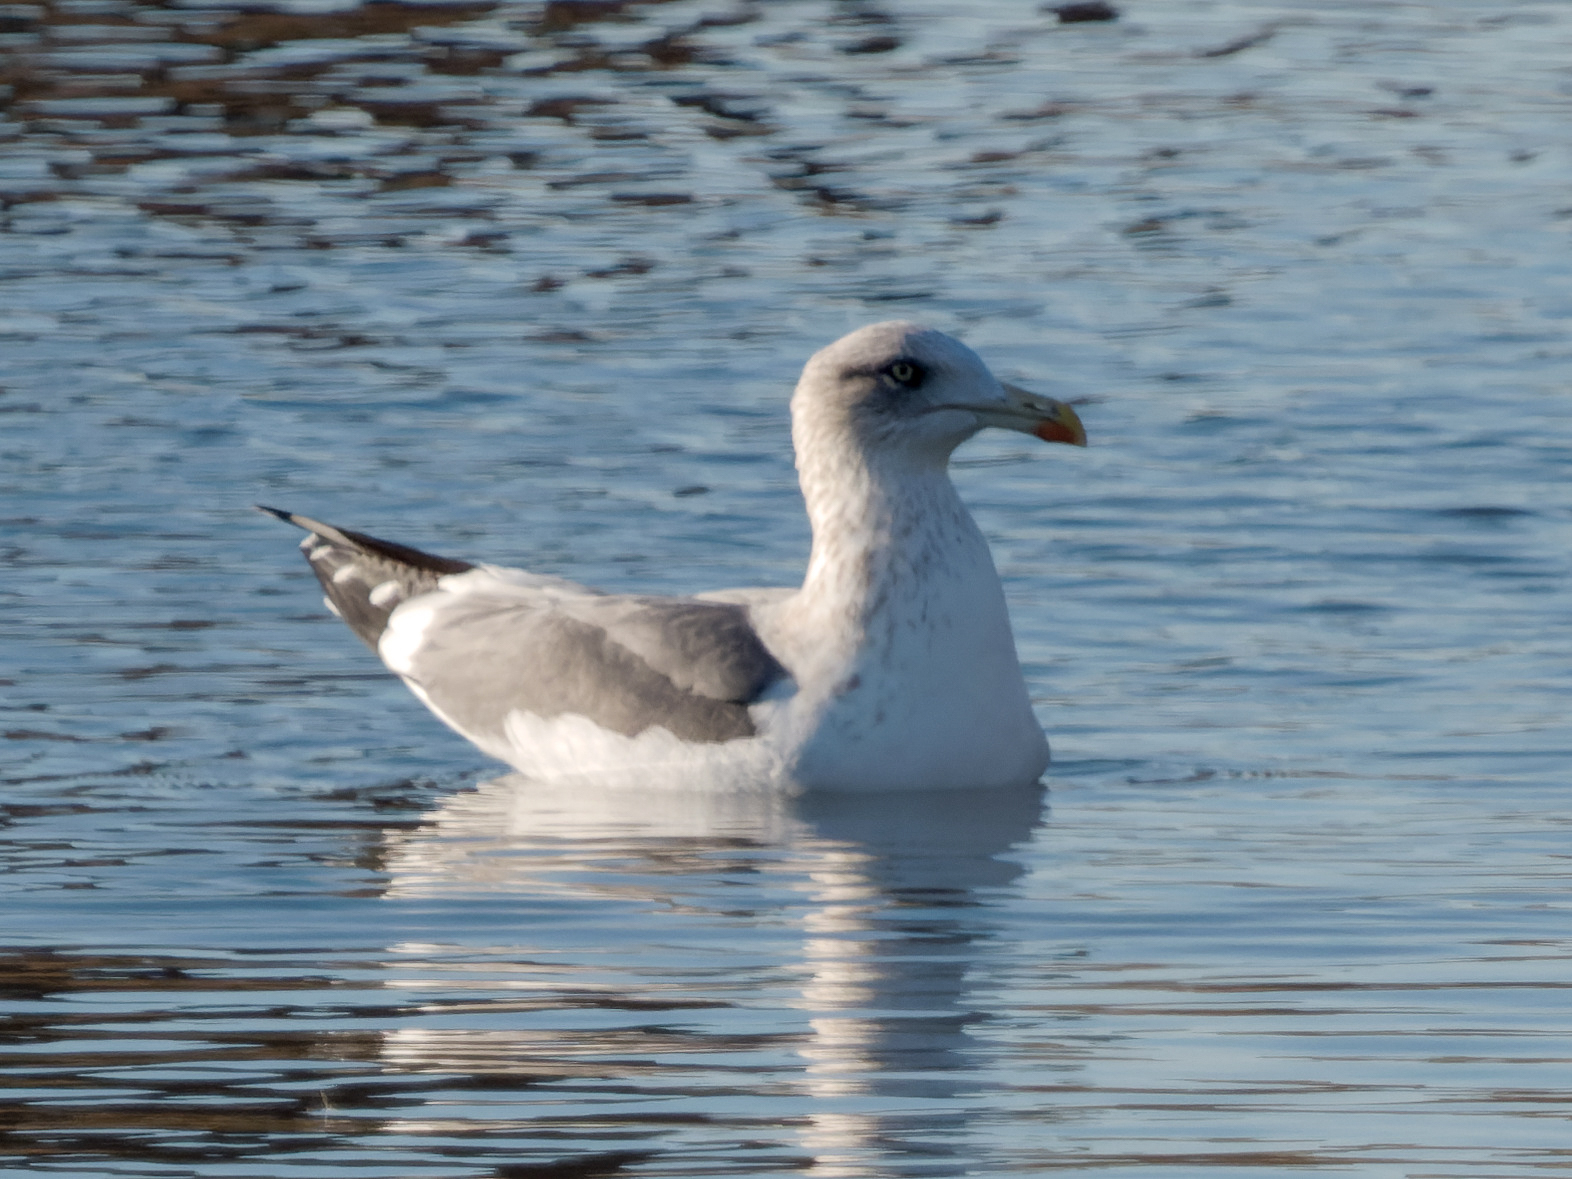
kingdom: Animalia
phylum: Chordata
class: Aves
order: Charadriiformes
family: Laridae
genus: Larus
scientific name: Larus fuscus
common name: Lesser black-backed gull
